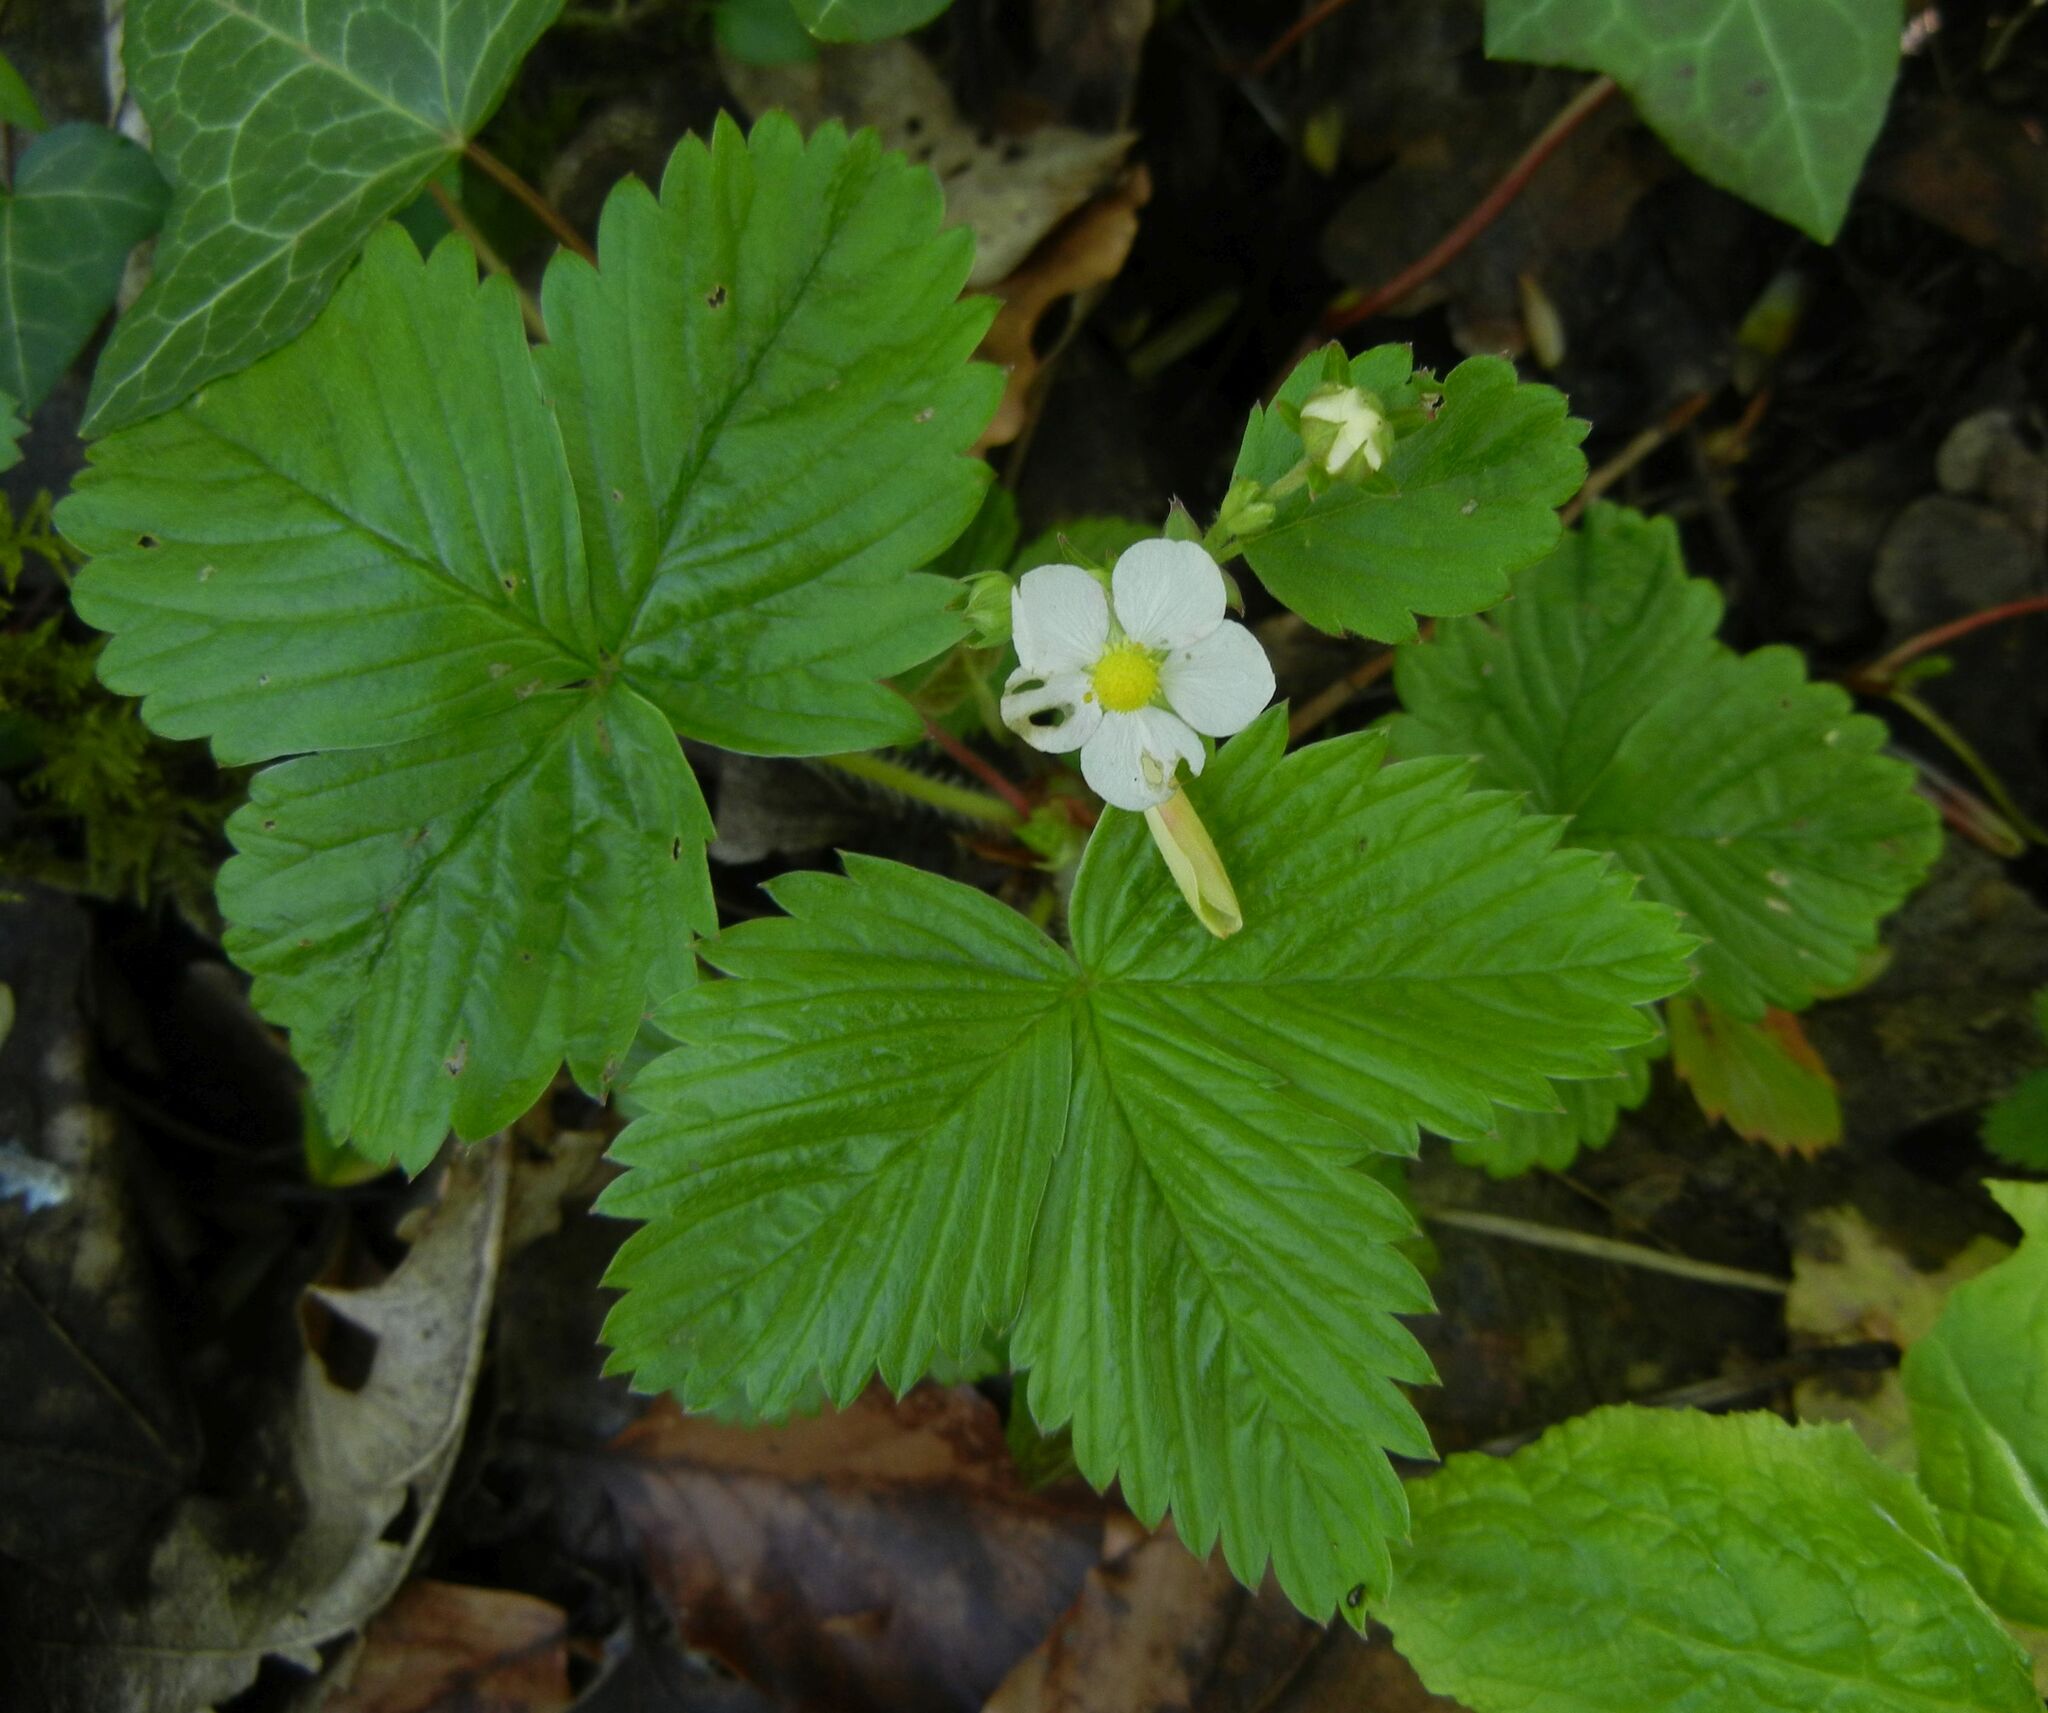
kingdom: Plantae
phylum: Tracheophyta
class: Magnoliopsida
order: Rosales
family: Rosaceae
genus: Fragaria
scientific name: Fragaria vesca
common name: Wild strawberry
